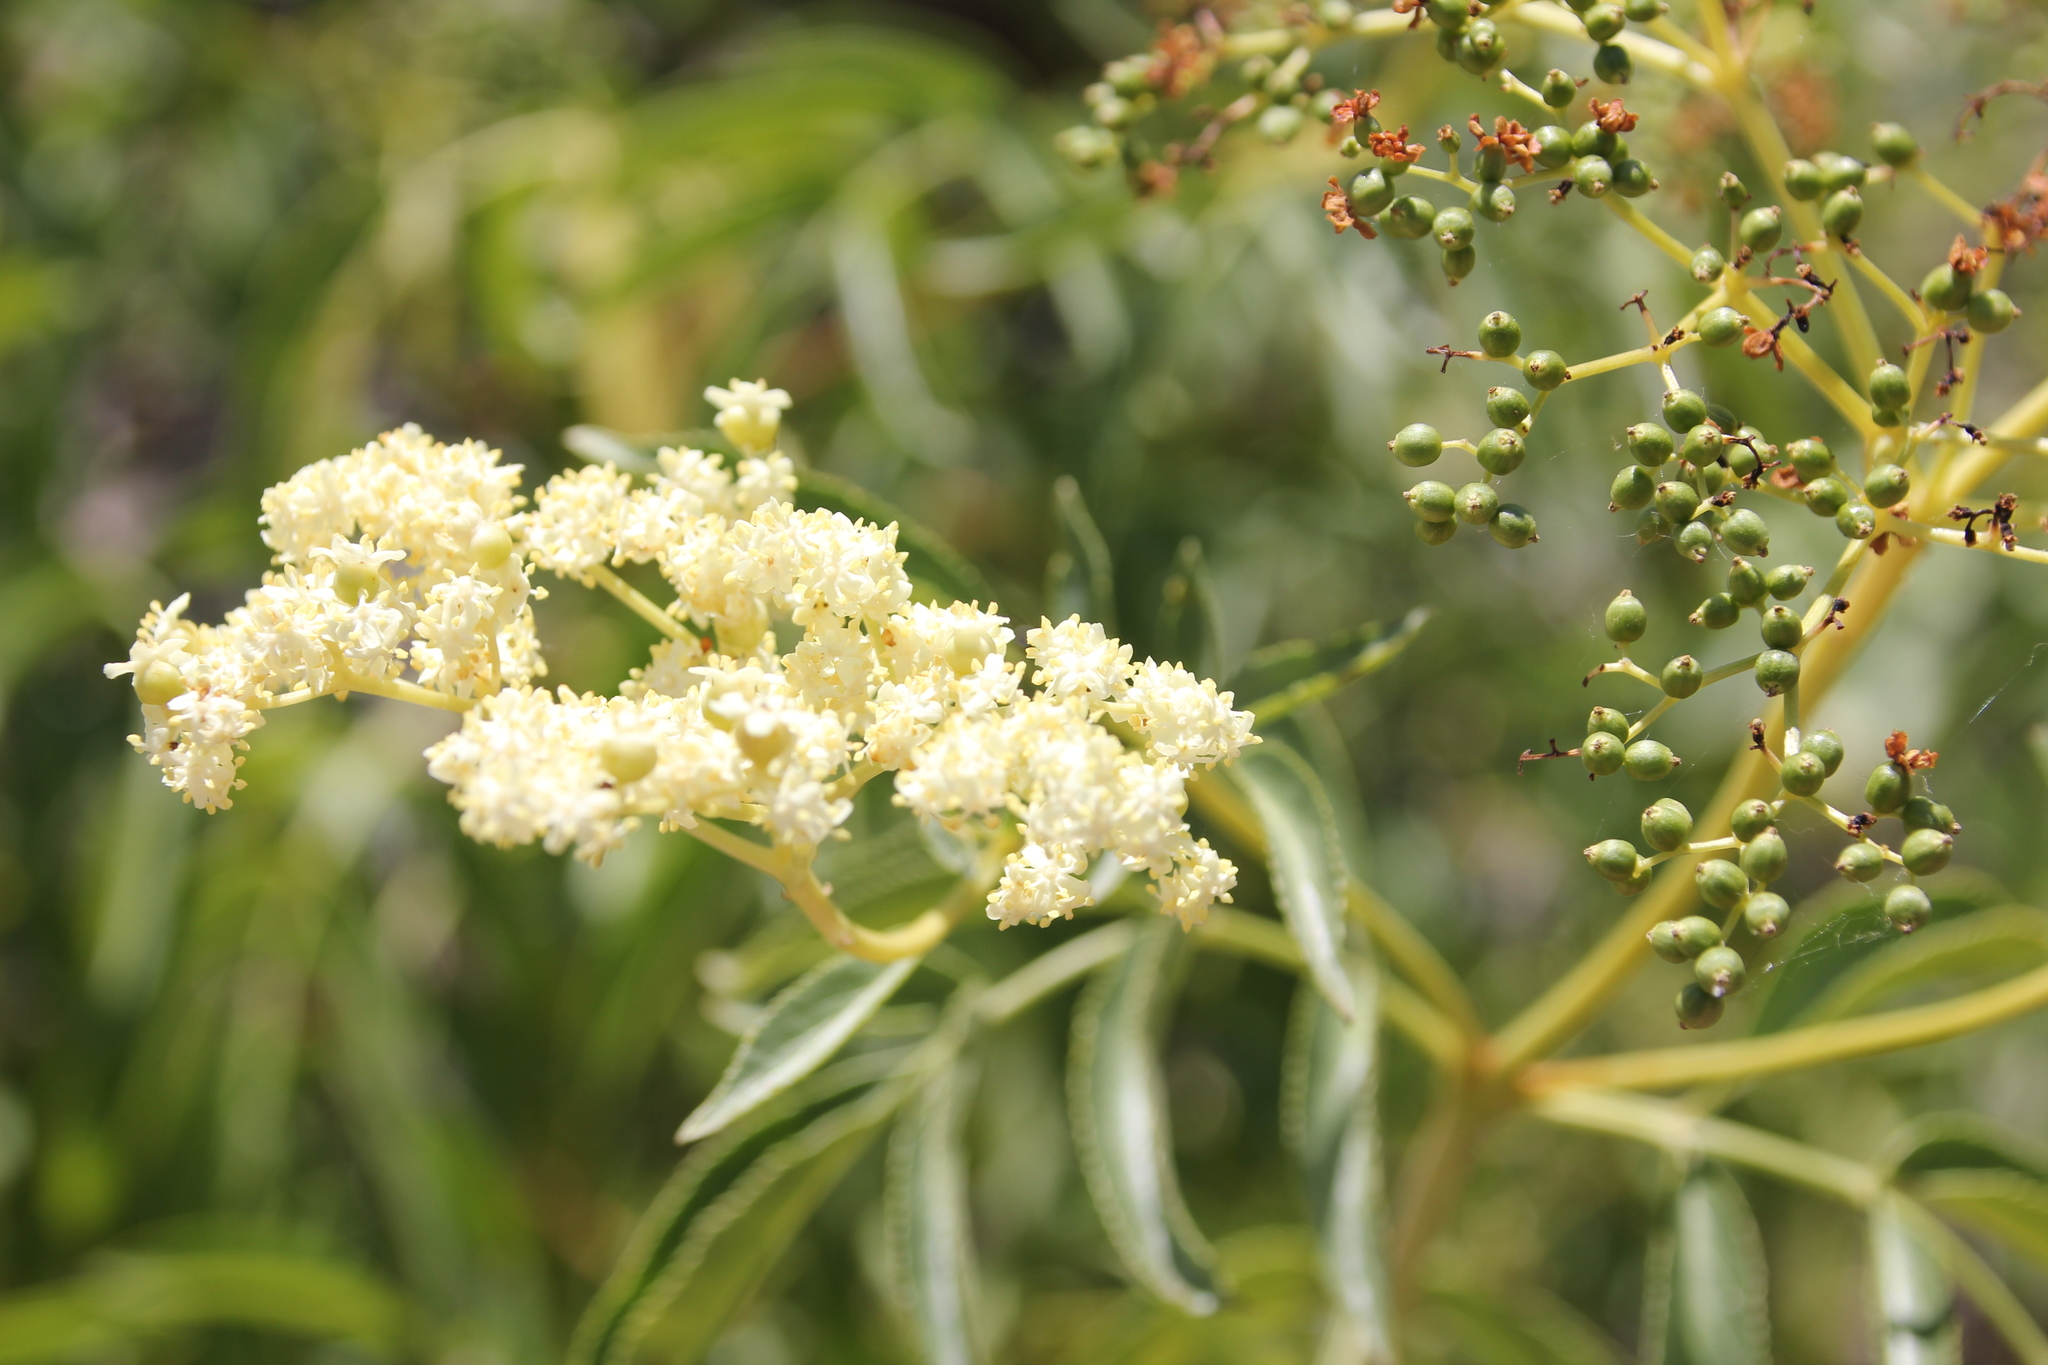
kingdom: Plantae
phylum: Tracheophyta
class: Magnoliopsida
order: Dipsacales
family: Viburnaceae
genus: Sambucus
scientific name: Sambucus cerulea
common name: Blue elder
